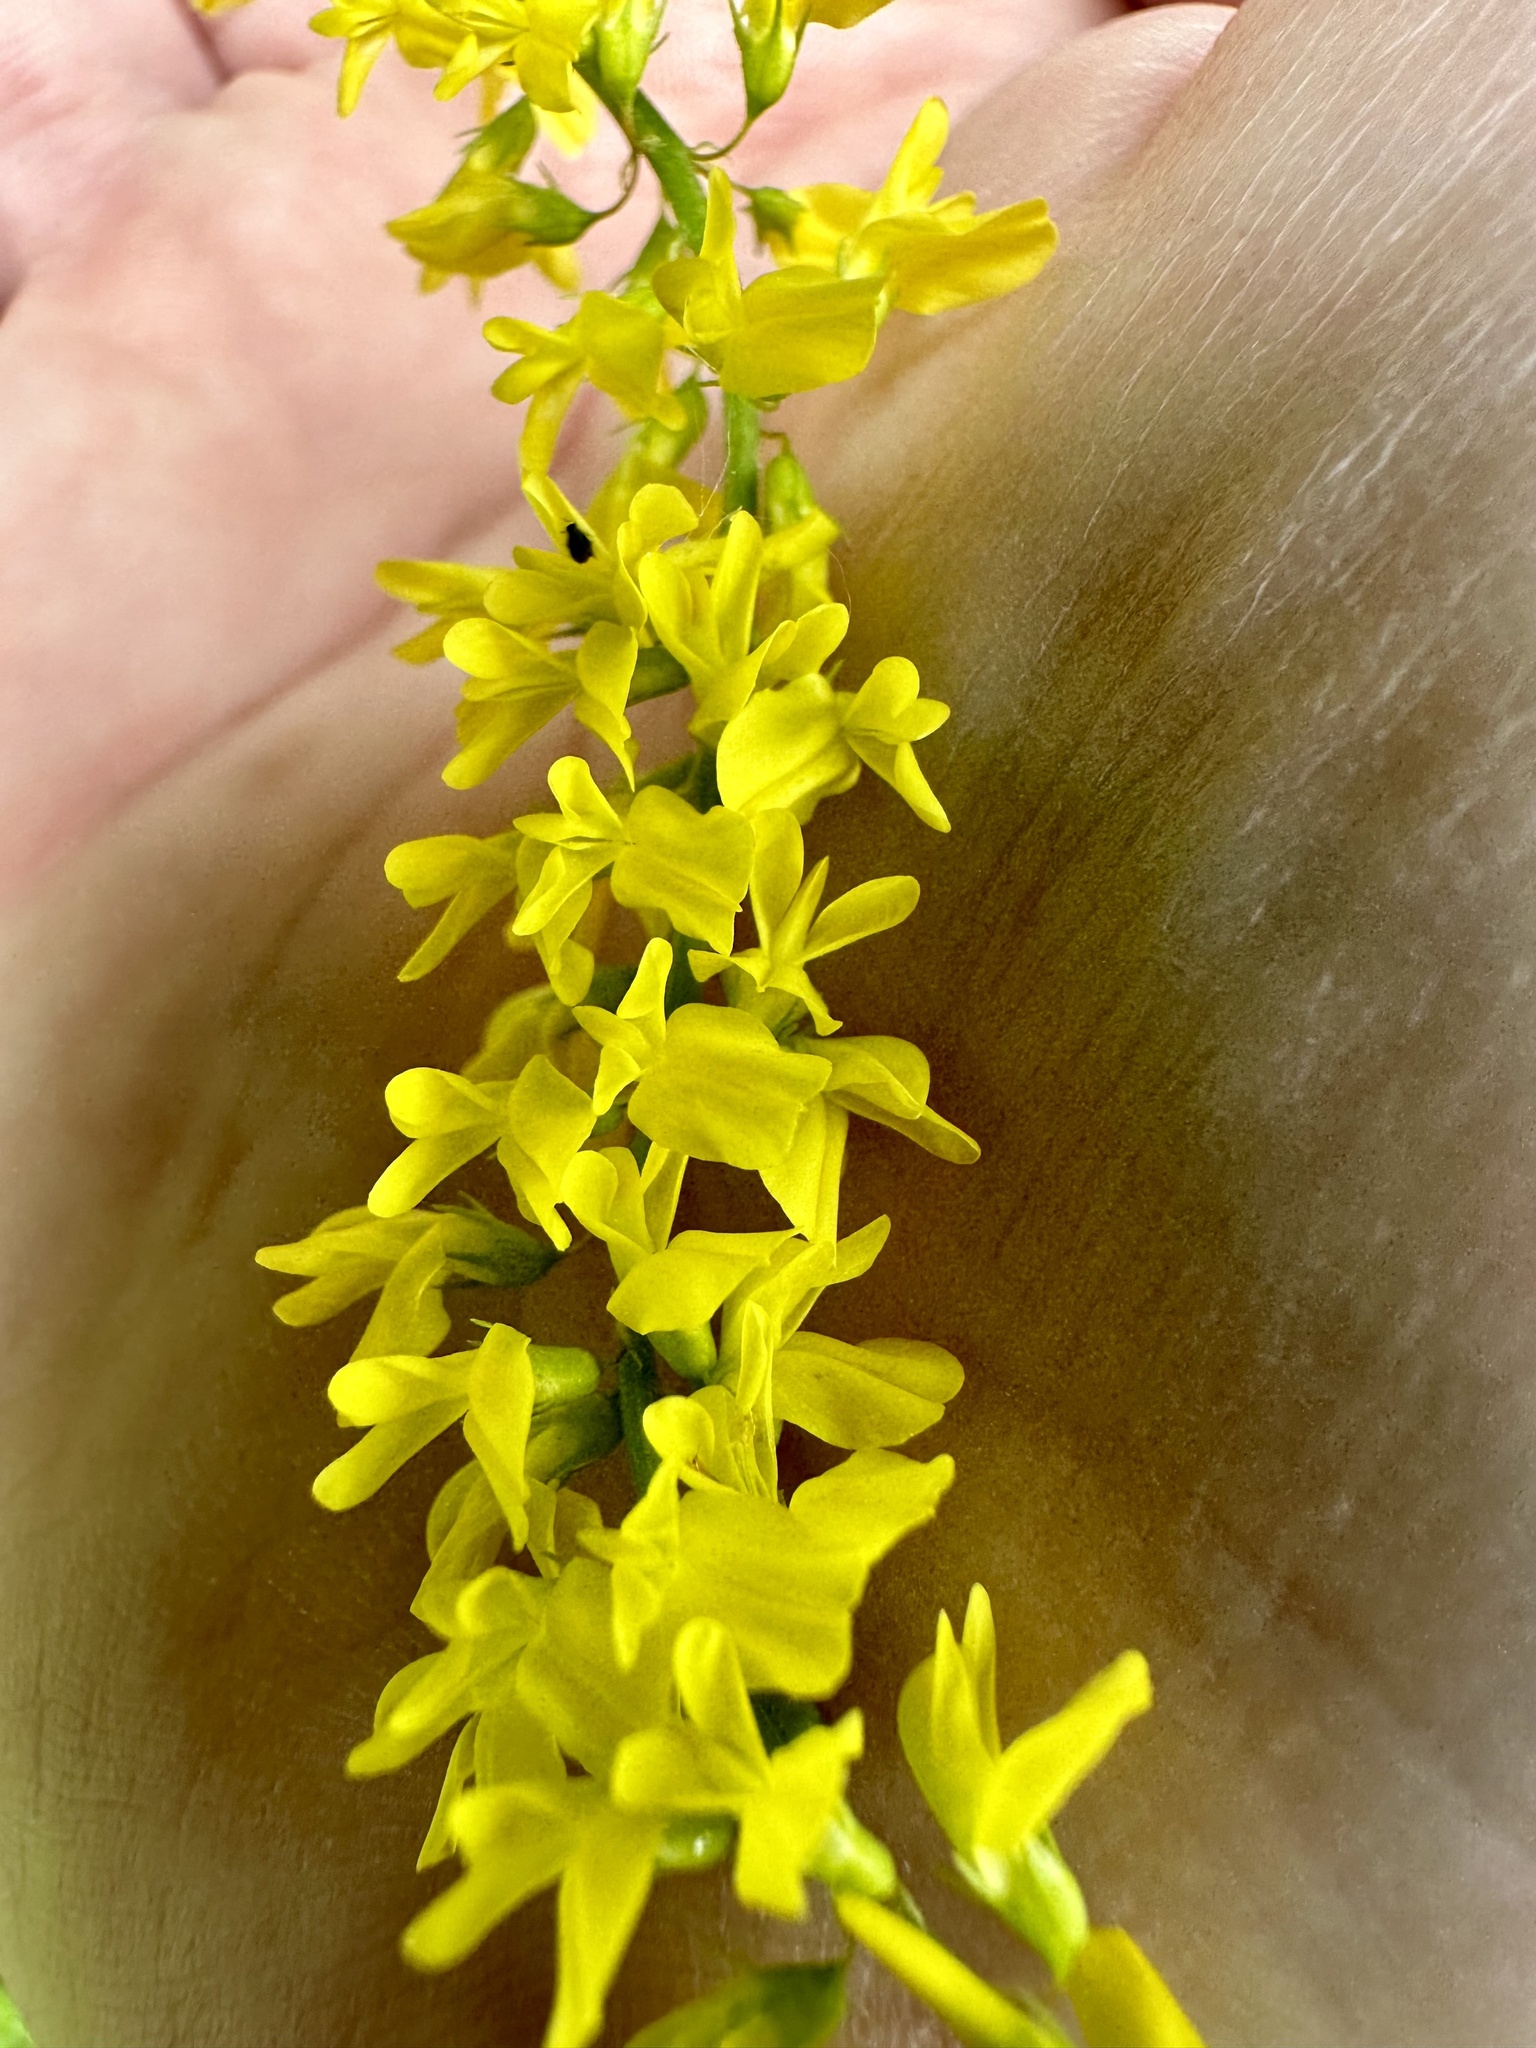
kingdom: Plantae
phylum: Tracheophyta
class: Magnoliopsida
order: Fabales
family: Fabaceae
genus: Melilotus
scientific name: Melilotus officinalis
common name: Sweetclover
